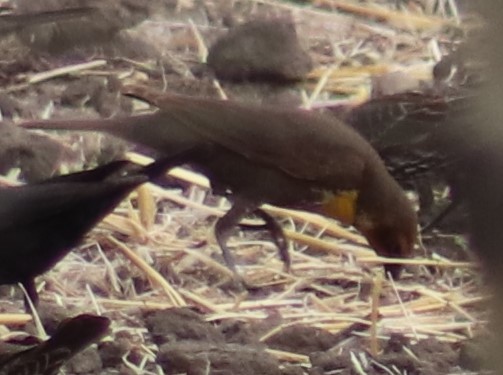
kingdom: Animalia
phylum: Chordata
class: Aves
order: Passeriformes
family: Icteridae
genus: Xanthocephalus
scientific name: Xanthocephalus xanthocephalus
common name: Yellow-headed blackbird
